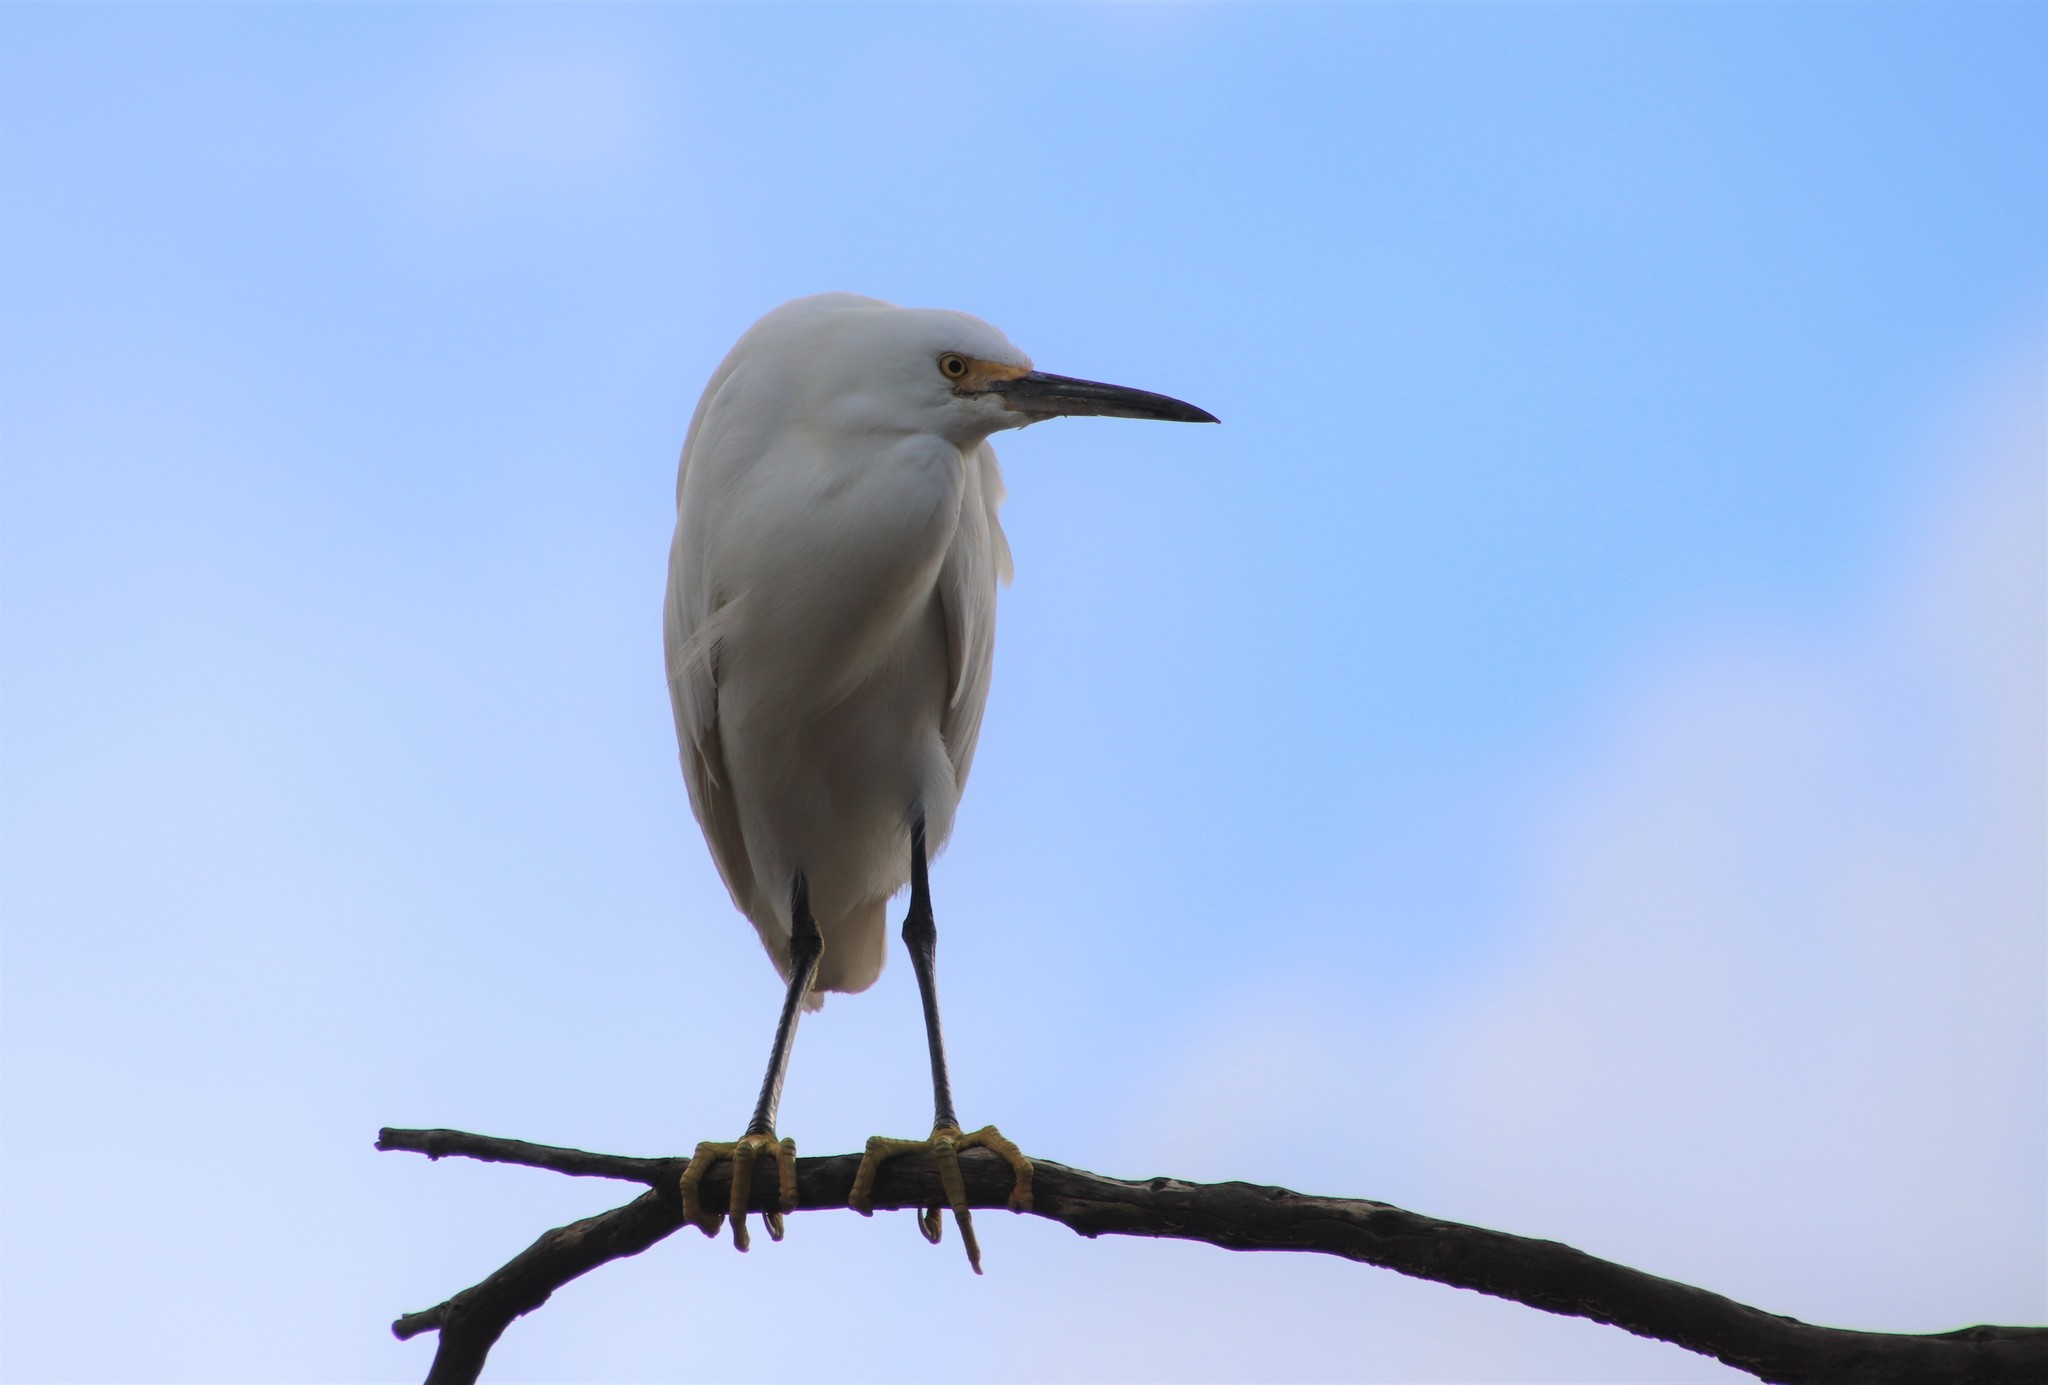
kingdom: Animalia
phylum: Chordata
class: Aves
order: Pelecaniformes
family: Ardeidae
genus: Egretta
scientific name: Egretta thula
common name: Snowy egret
